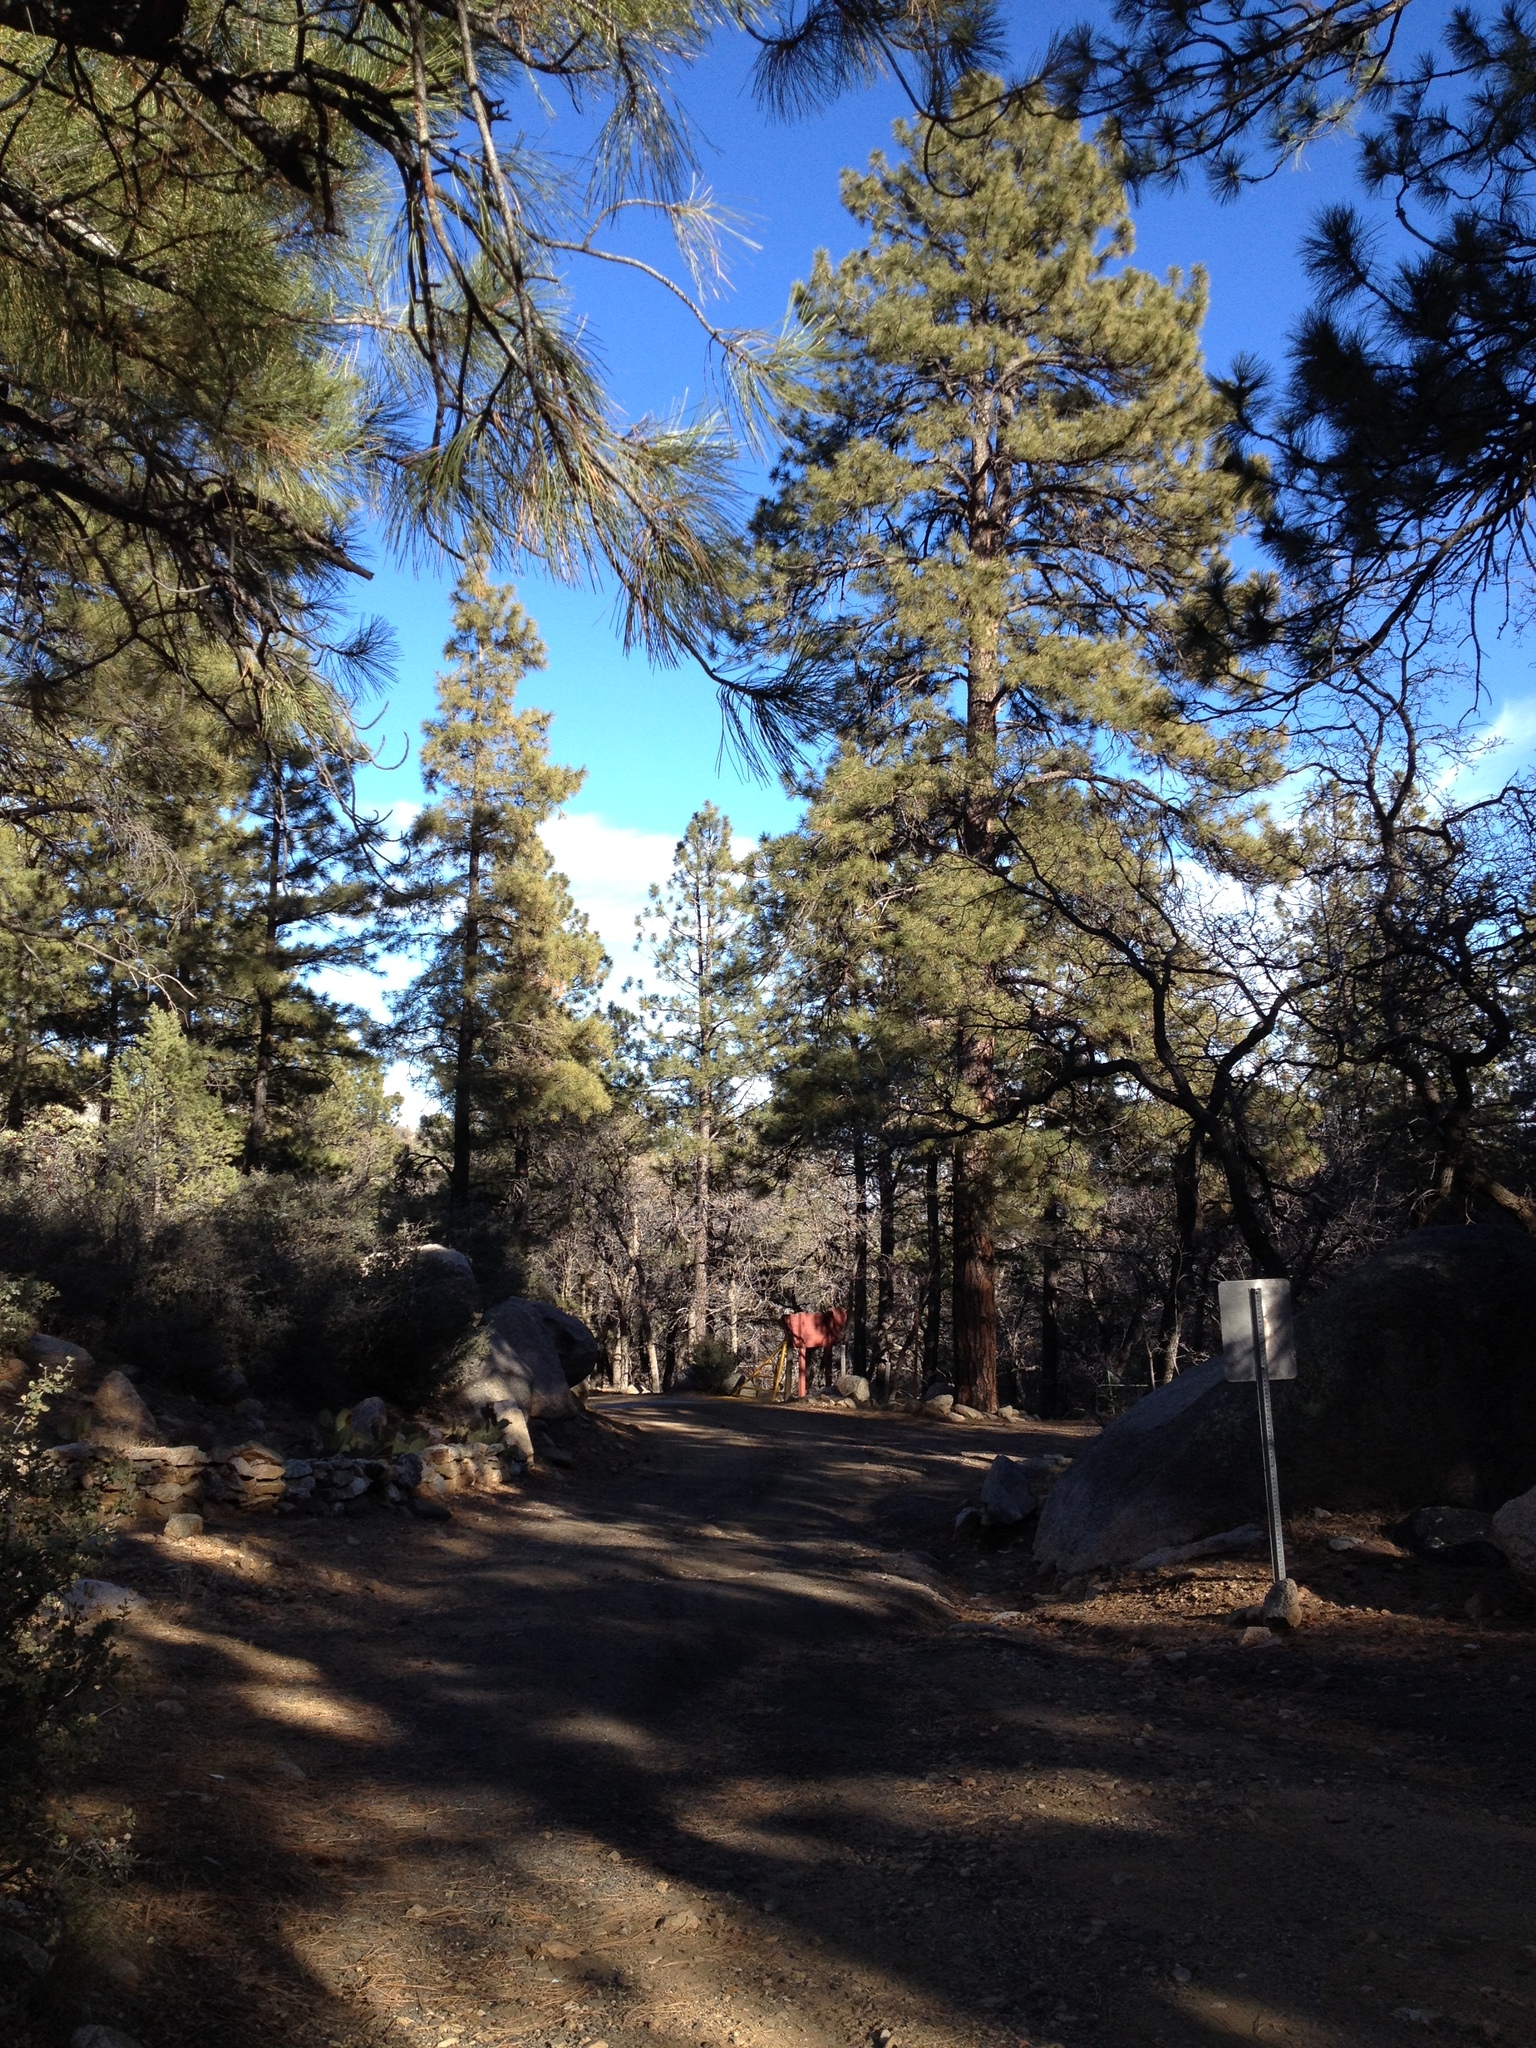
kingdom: Plantae
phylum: Tracheophyta
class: Pinopsida
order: Pinales
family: Pinaceae
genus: Pinus
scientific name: Pinus ponderosa
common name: Western yellow-pine
